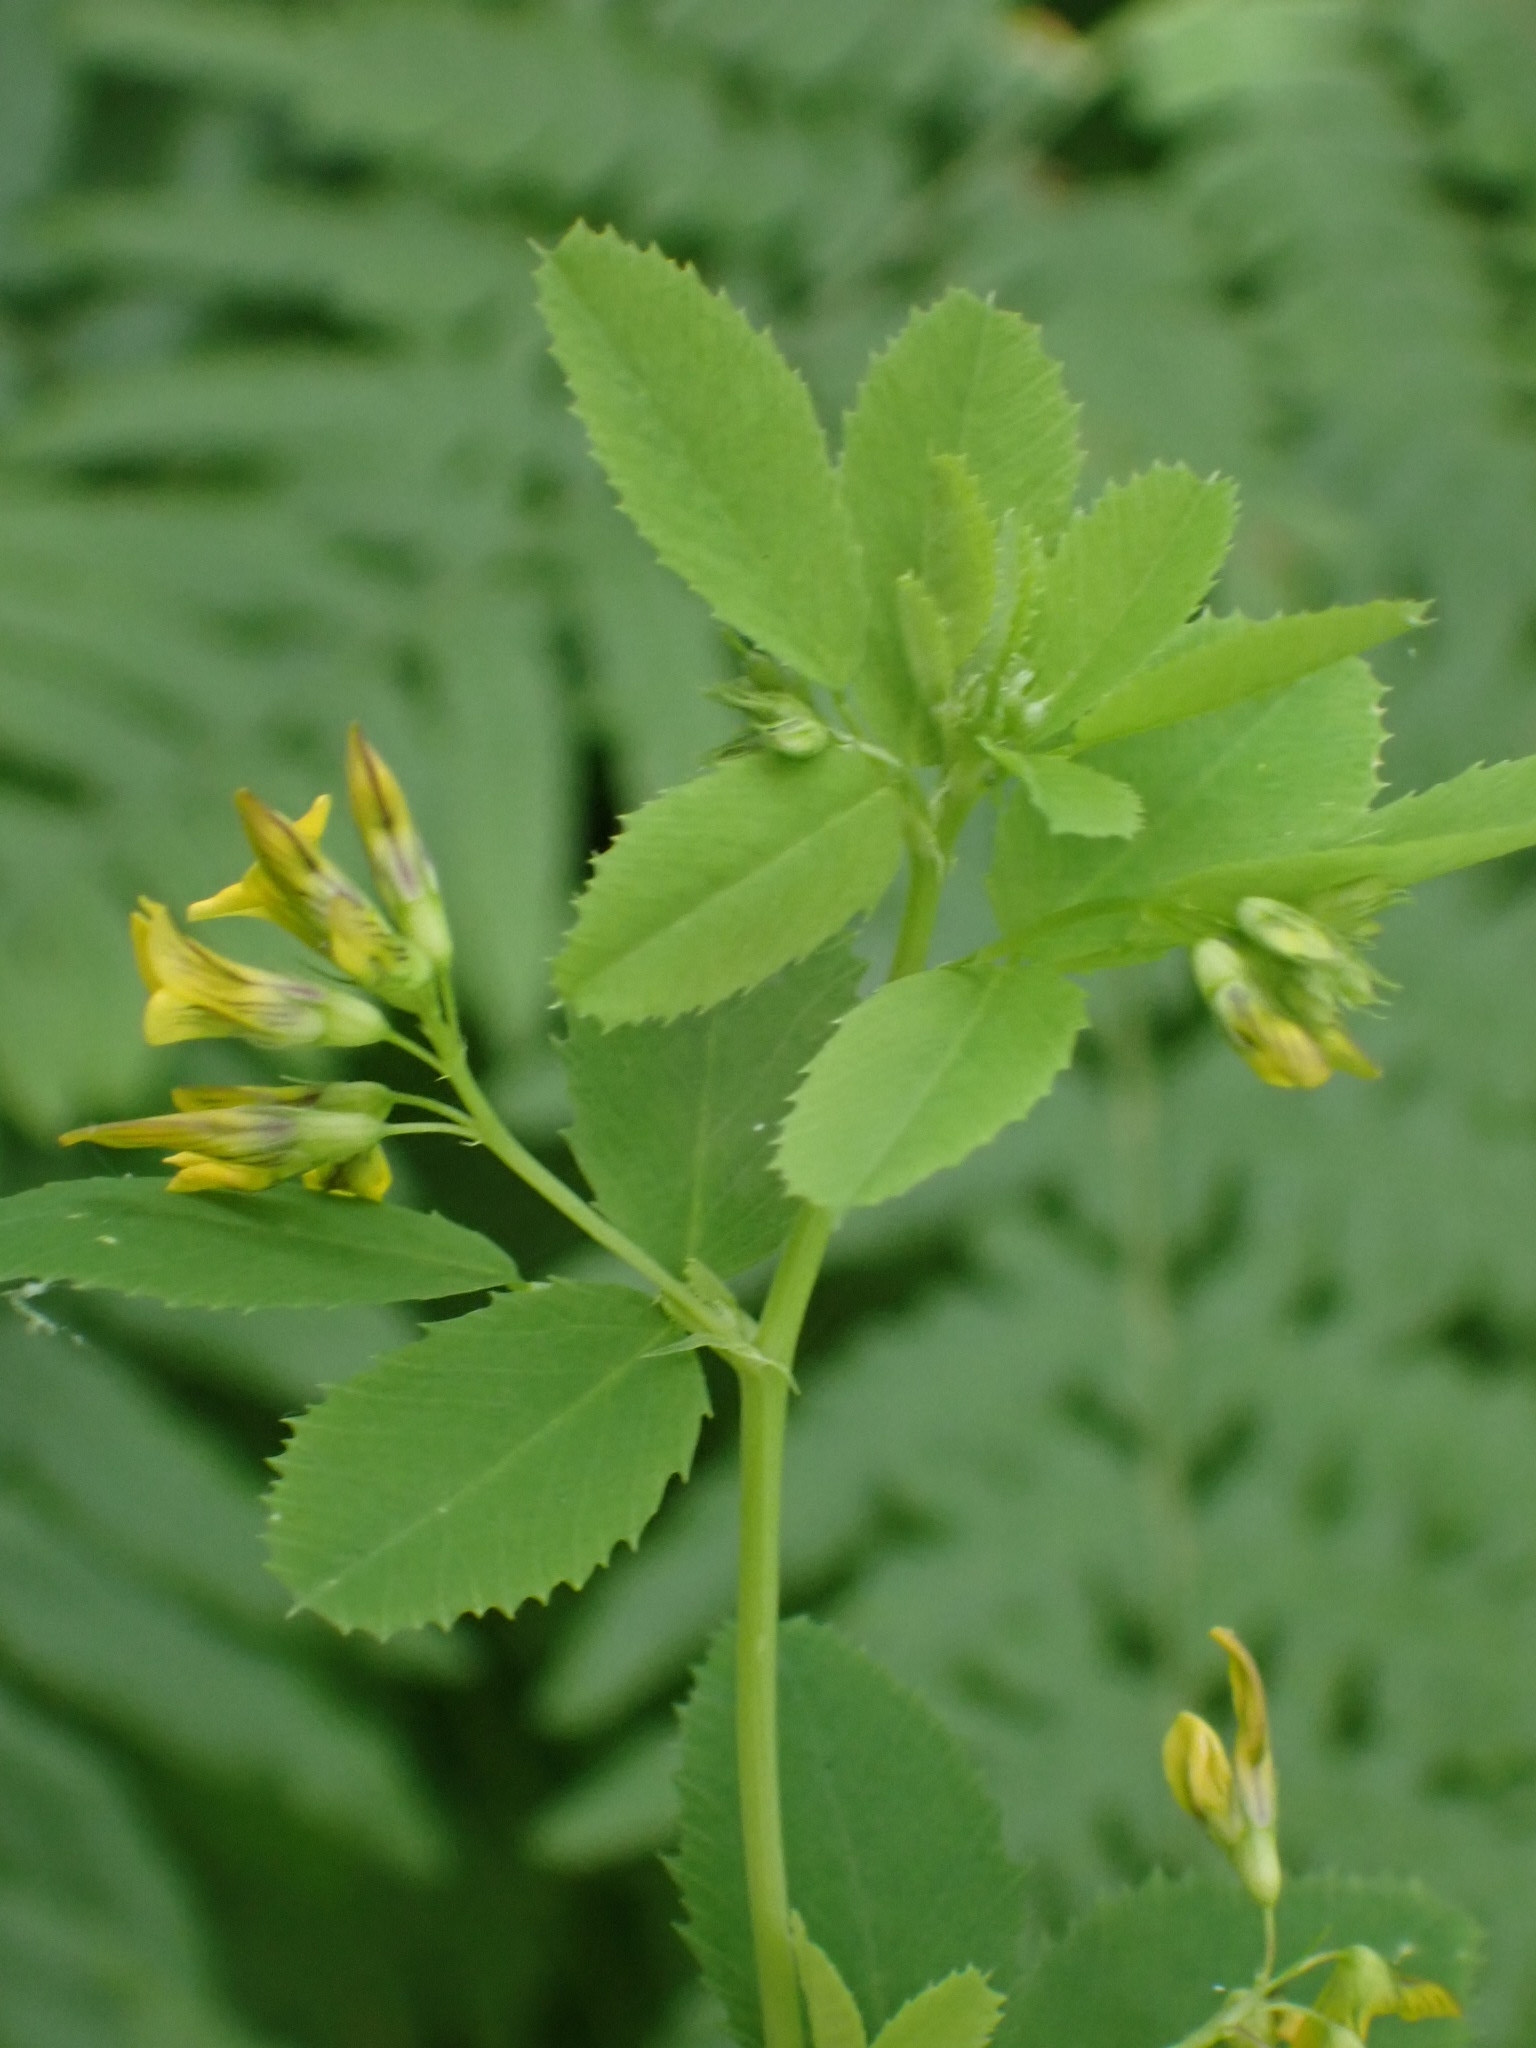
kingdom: Plantae
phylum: Tracheophyta
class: Magnoliopsida
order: Fabales
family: Fabaceae
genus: Medicago
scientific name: Medicago platycarpos
